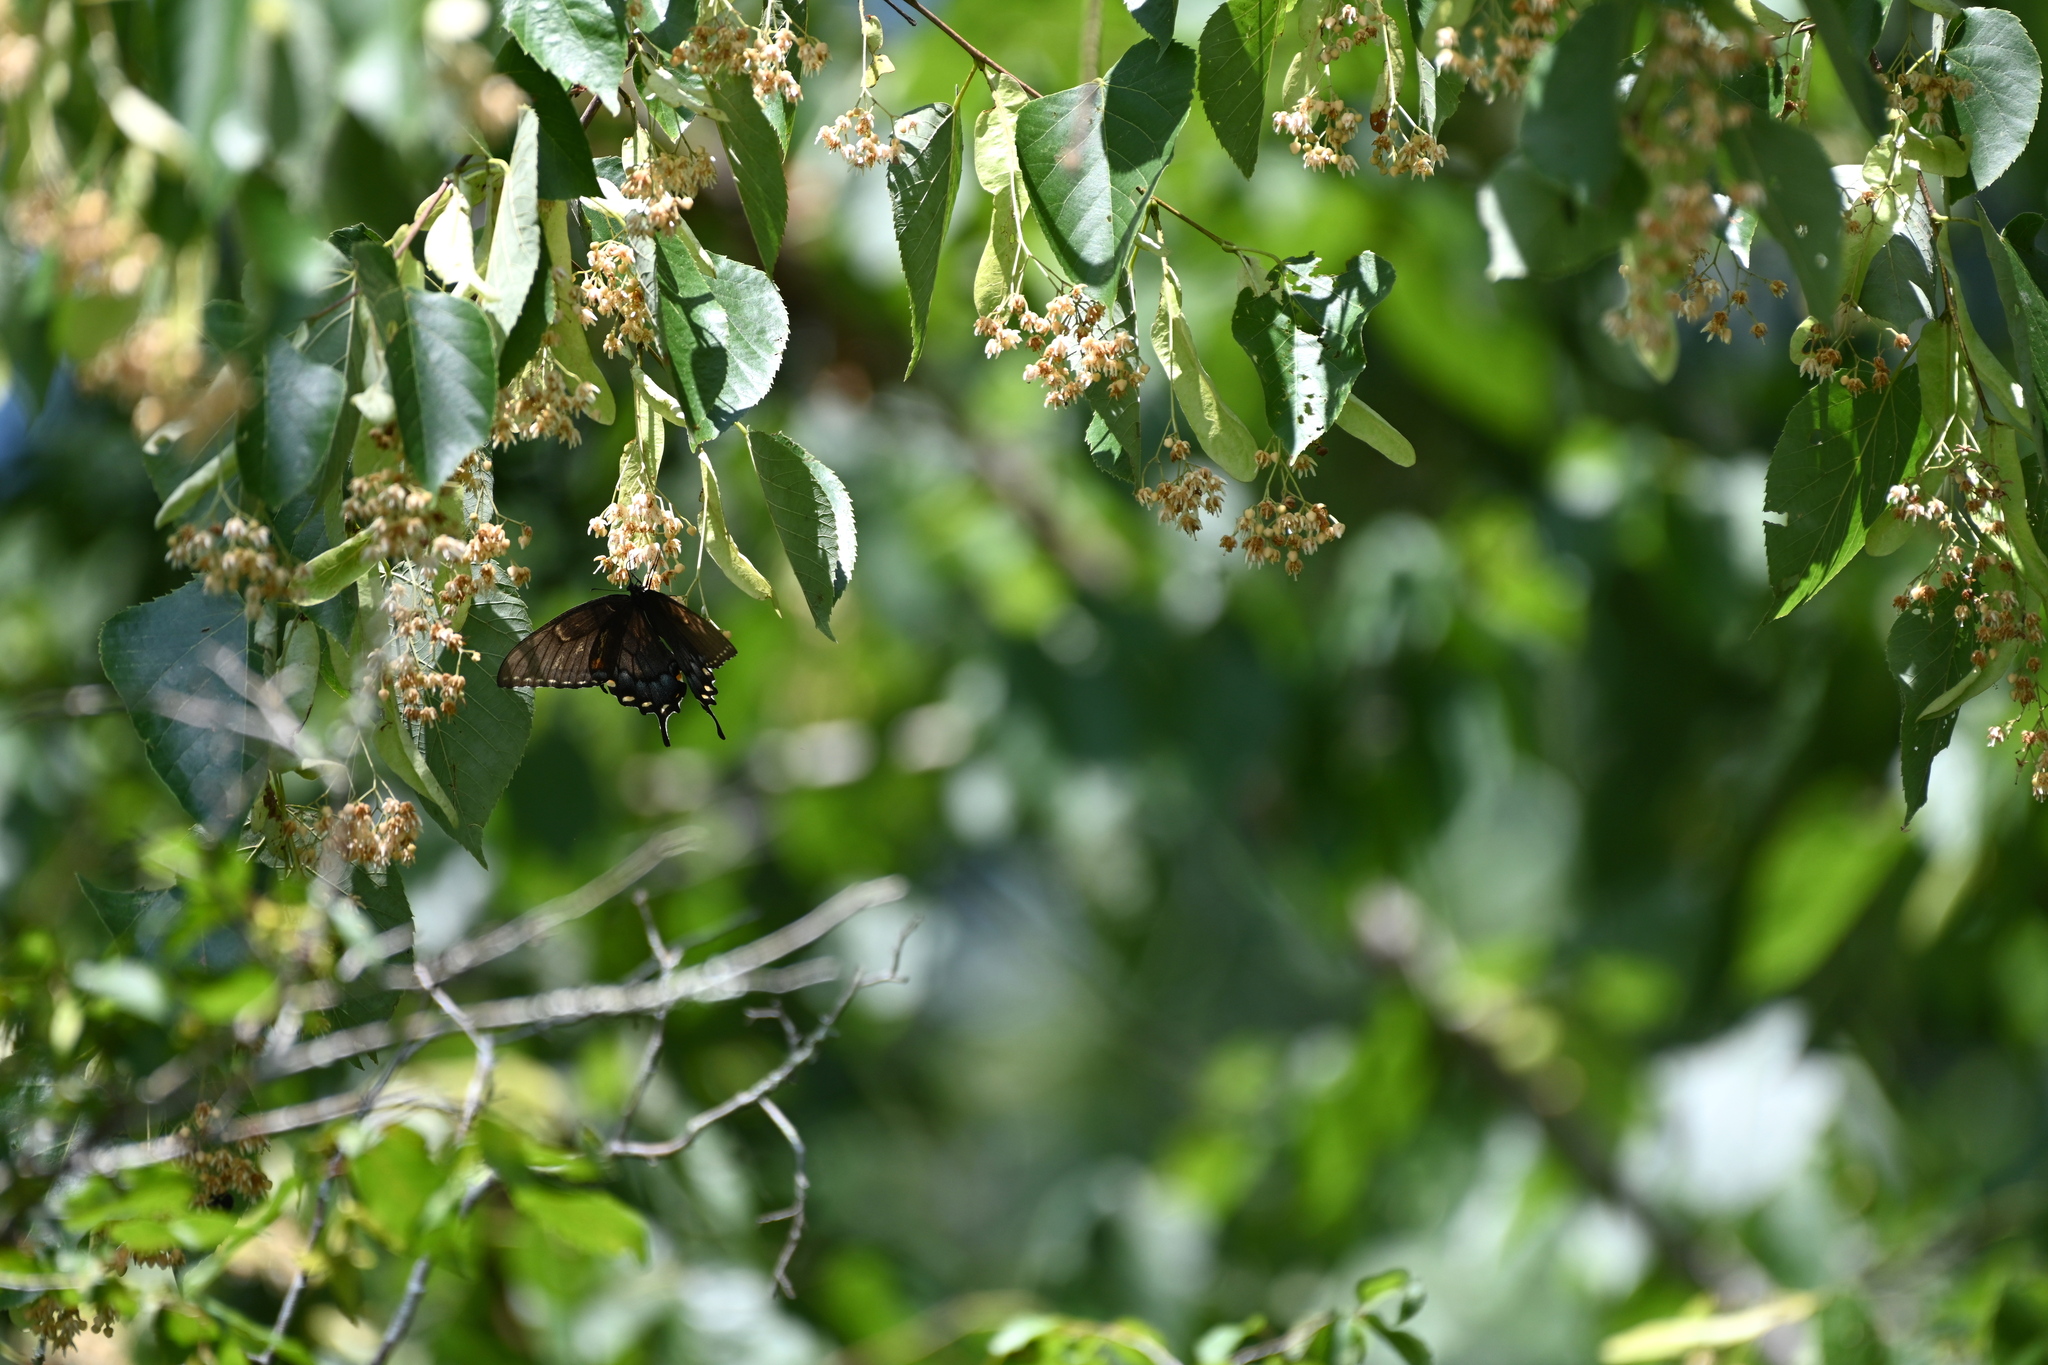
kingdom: Animalia
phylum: Arthropoda
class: Insecta
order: Lepidoptera
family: Papilionidae
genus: Papilio
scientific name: Papilio glaucus
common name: Tiger swallowtail
